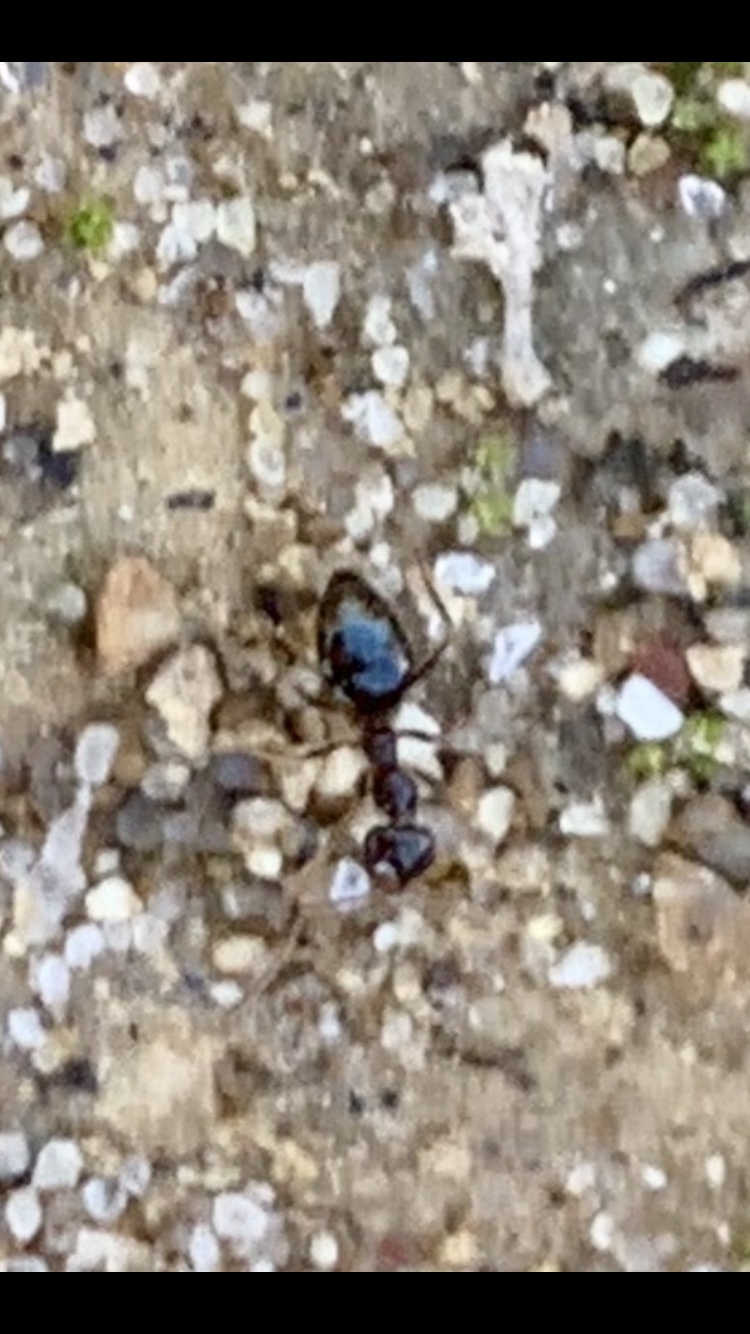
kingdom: Animalia
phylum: Arthropoda
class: Insecta
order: Hymenoptera
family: Formicidae
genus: Prenolepis
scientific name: Prenolepis imparis
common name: Small honey ant
